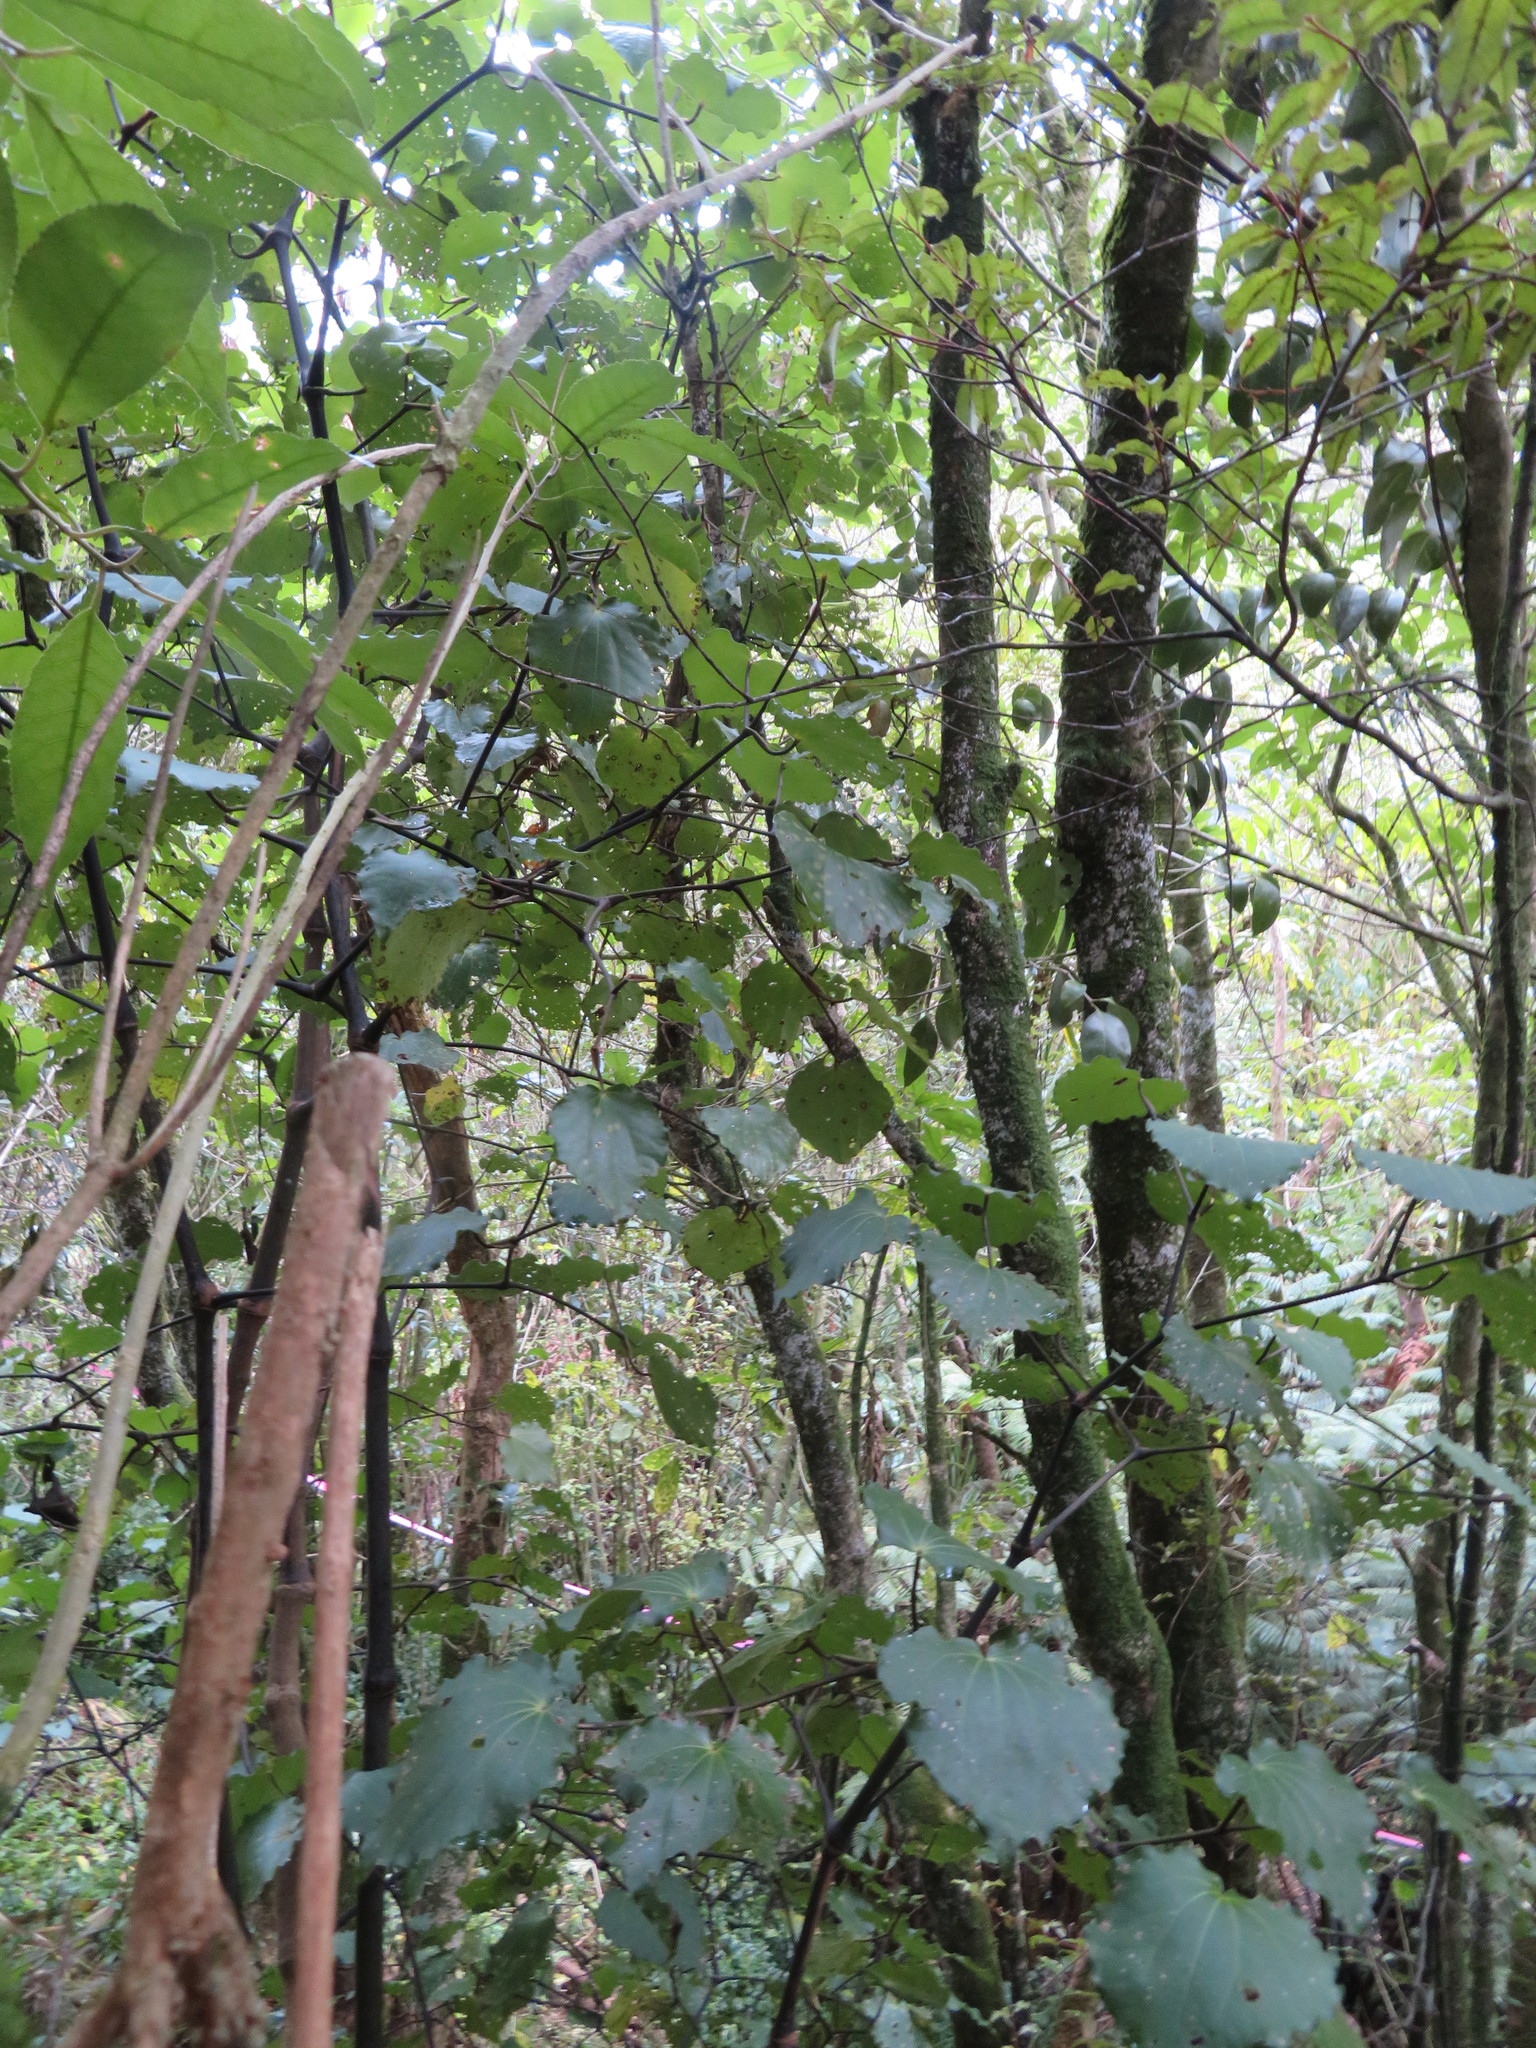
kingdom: Plantae
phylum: Tracheophyta
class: Magnoliopsida
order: Piperales
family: Piperaceae
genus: Macropiper
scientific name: Macropiper excelsum
